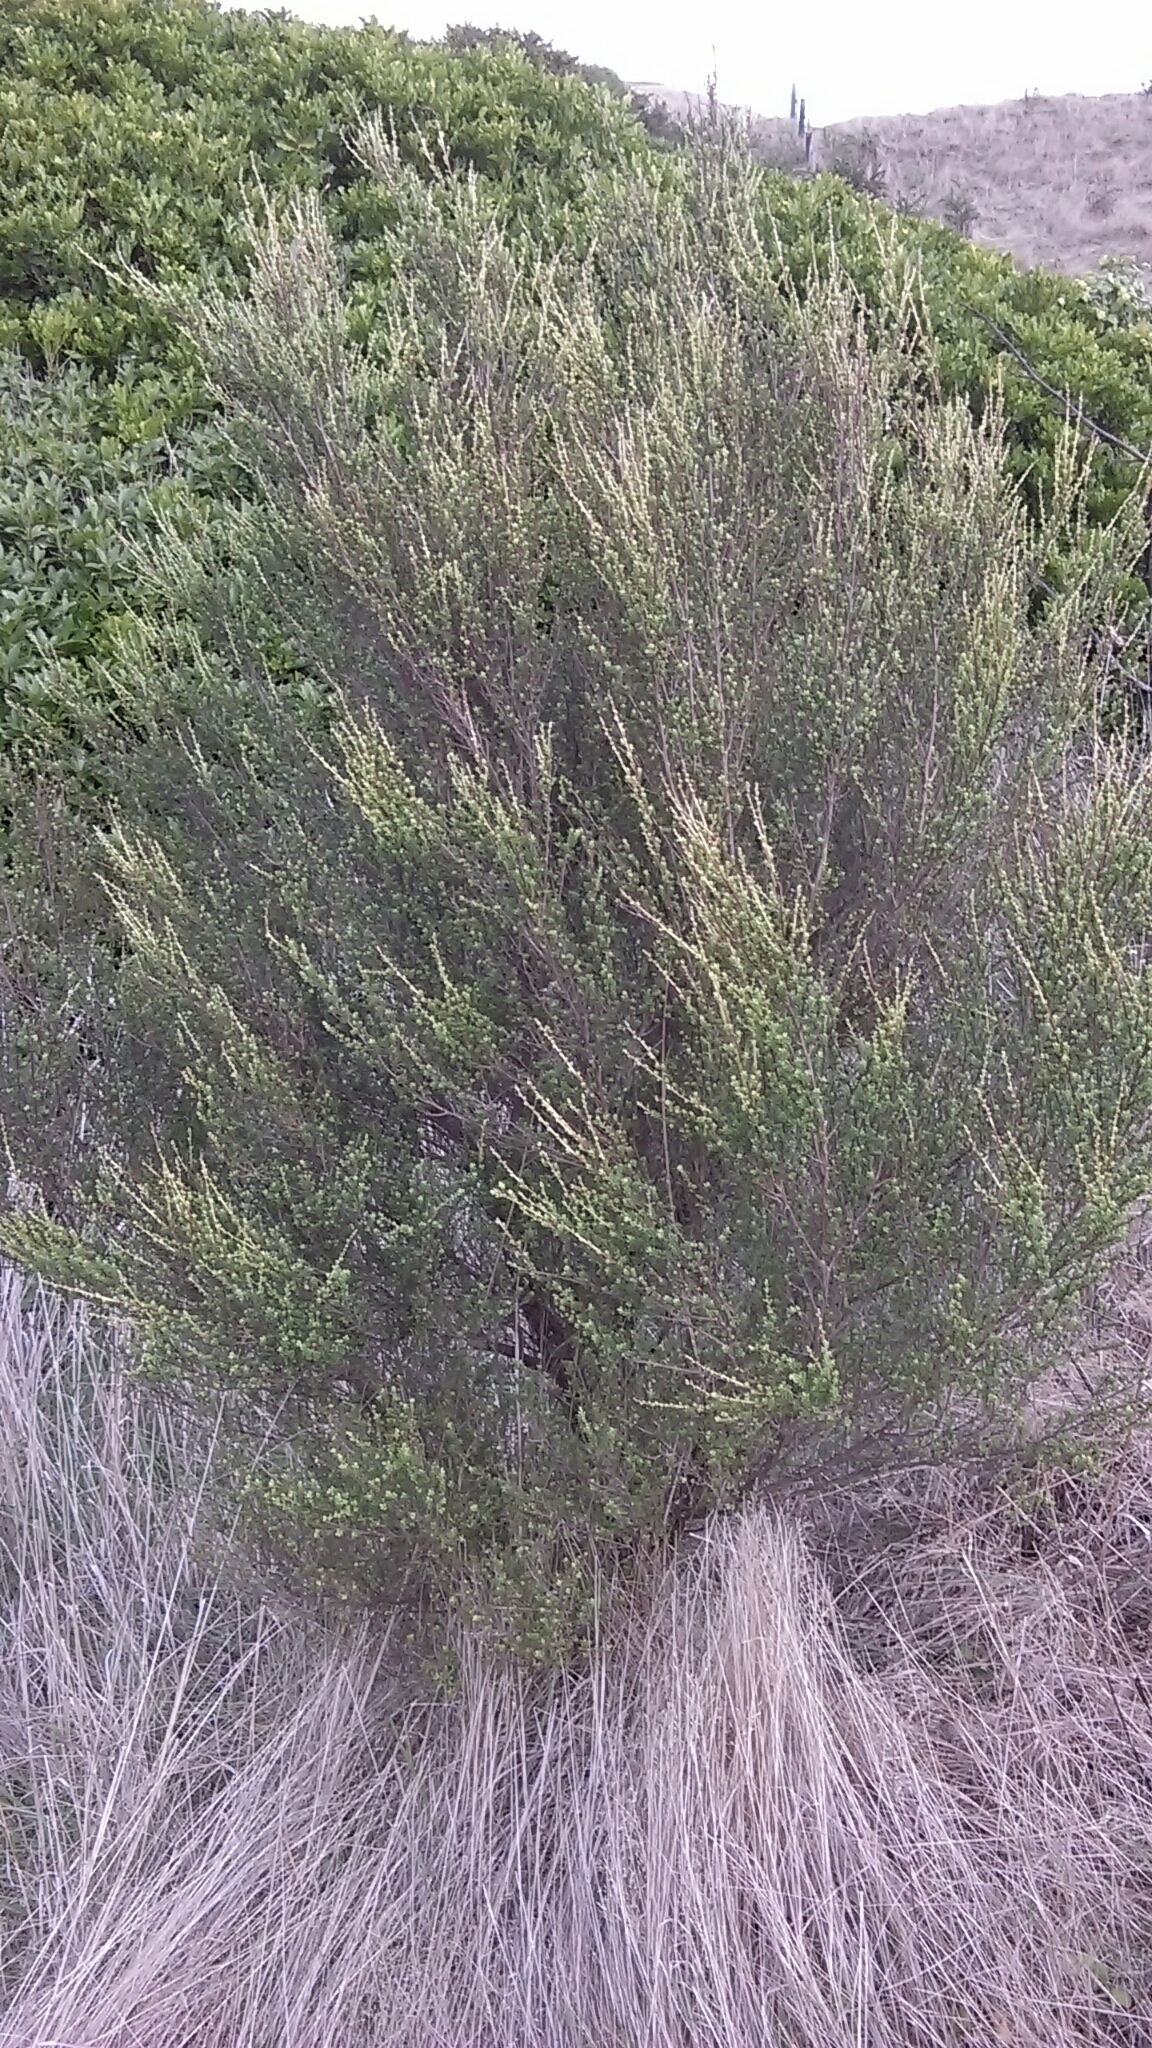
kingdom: Plantae
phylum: Tracheophyta
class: Magnoliopsida
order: Myrtales
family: Myrtaceae
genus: Kunzea
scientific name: Kunzea amathicola
